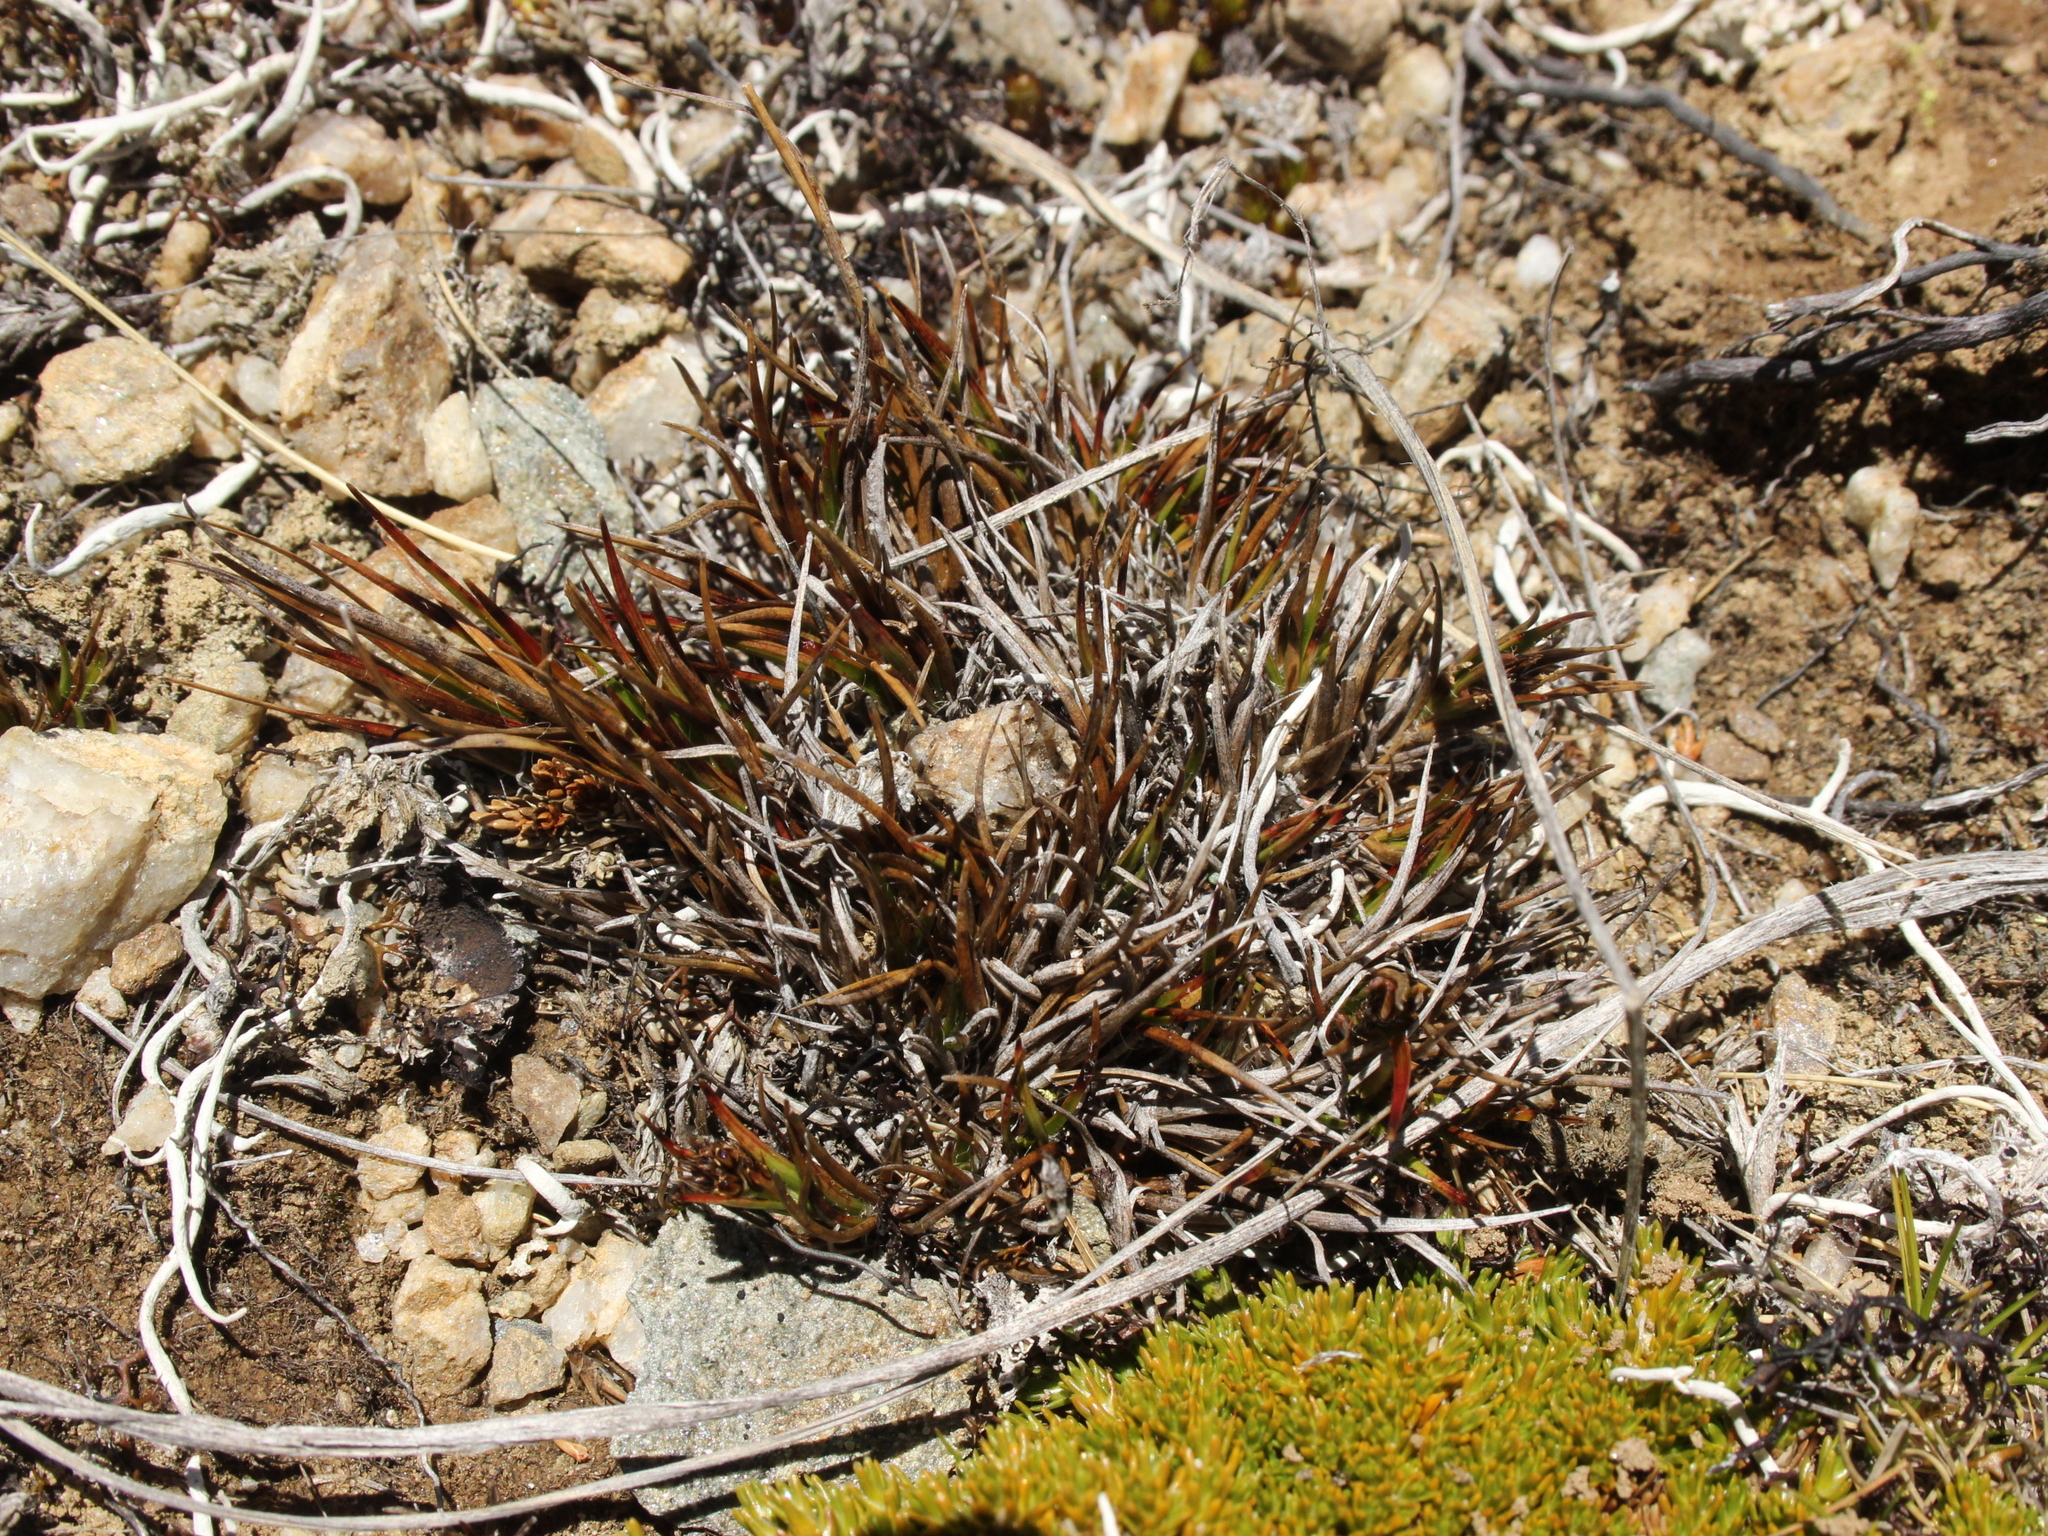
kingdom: Plantae
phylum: Tracheophyta
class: Liliopsida
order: Poales
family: Juncaceae
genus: Luzula
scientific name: Luzula pumila
